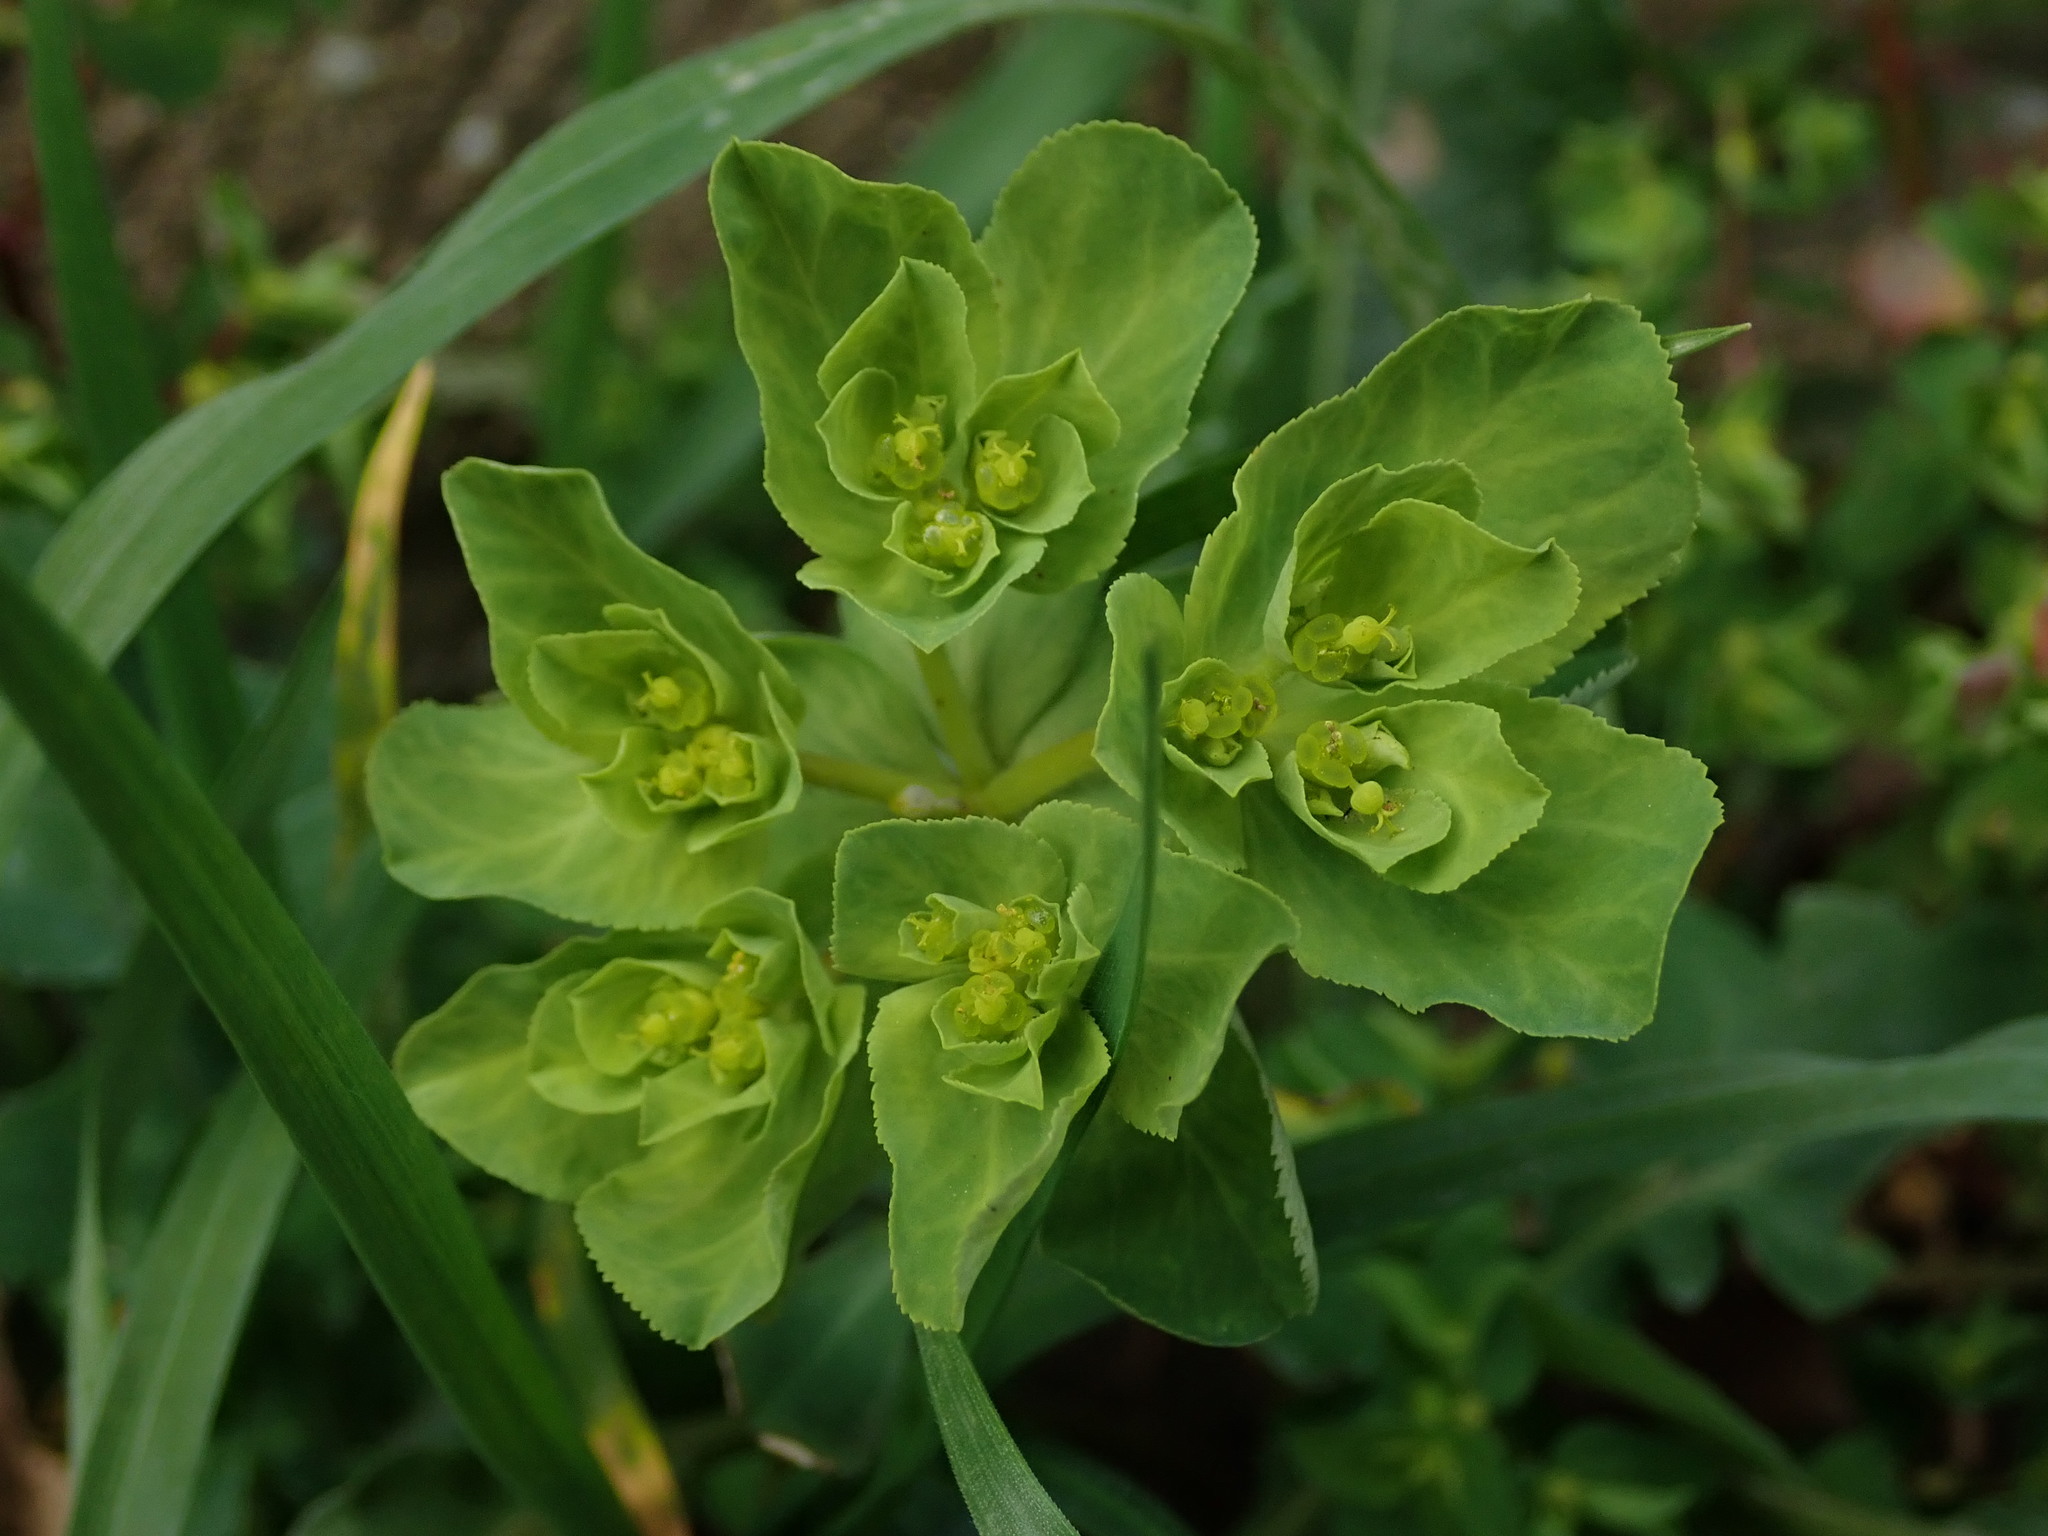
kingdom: Plantae
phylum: Tracheophyta
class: Magnoliopsida
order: Malpighiales
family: Euphorbiaceae
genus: Euphorbia
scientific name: Euphorbia helioscopia
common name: Sun spurge
